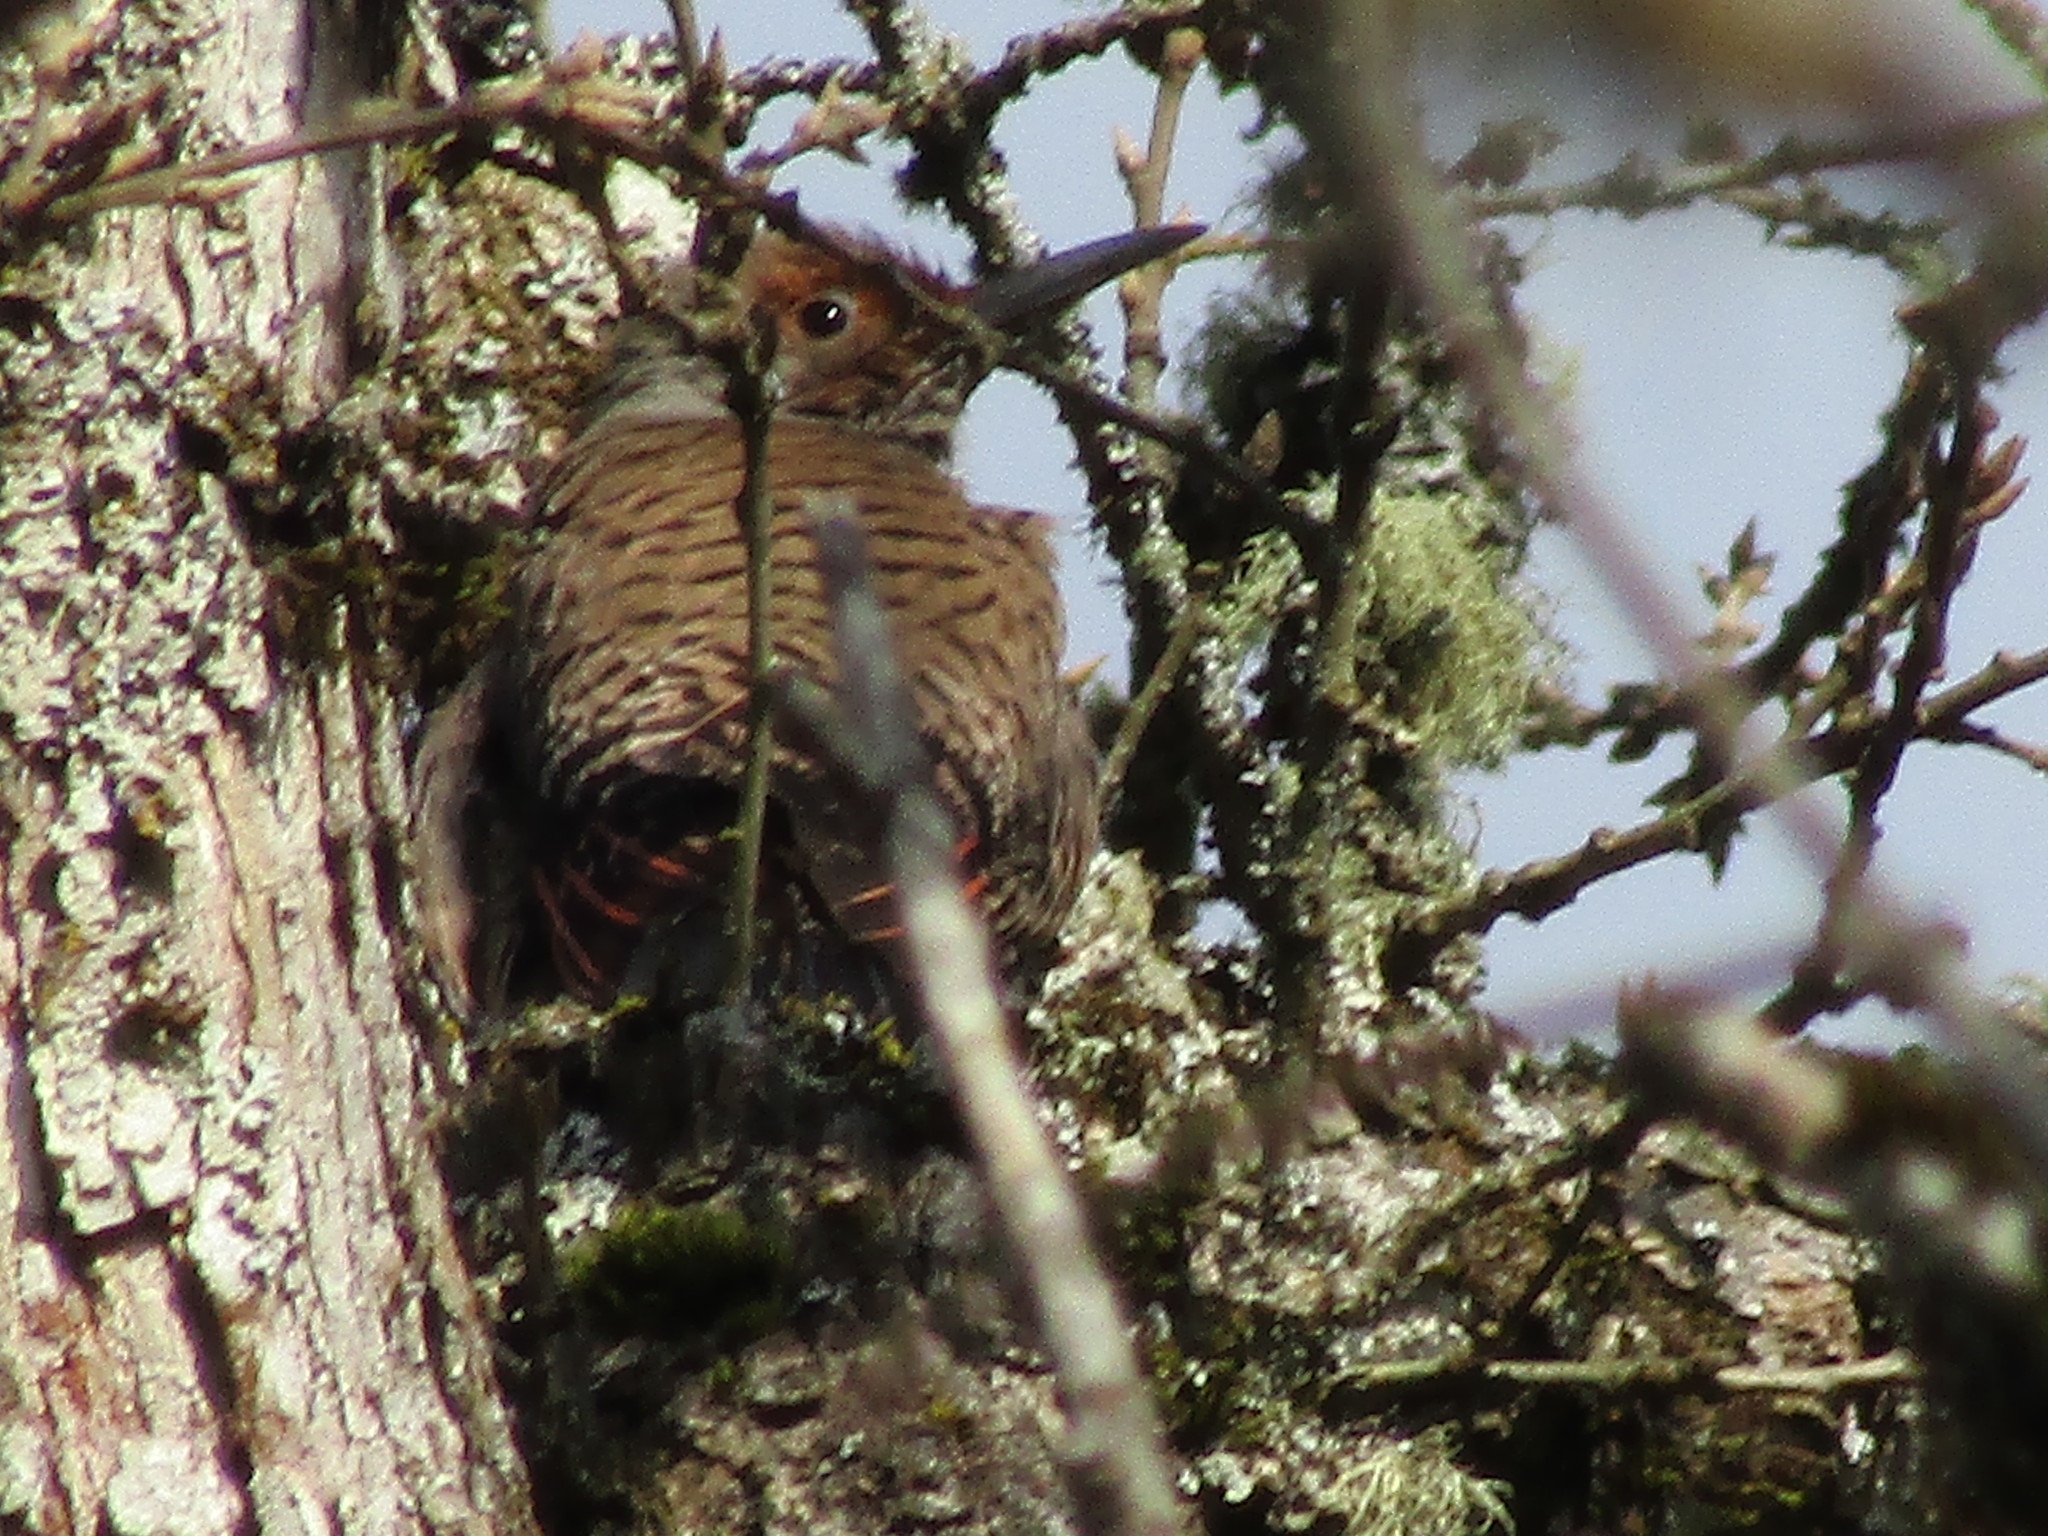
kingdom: Animalia
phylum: Chordata
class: Aves
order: Piciformes
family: Picidae
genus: Colaptes
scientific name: Colaptes auratus
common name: Northern flicker
